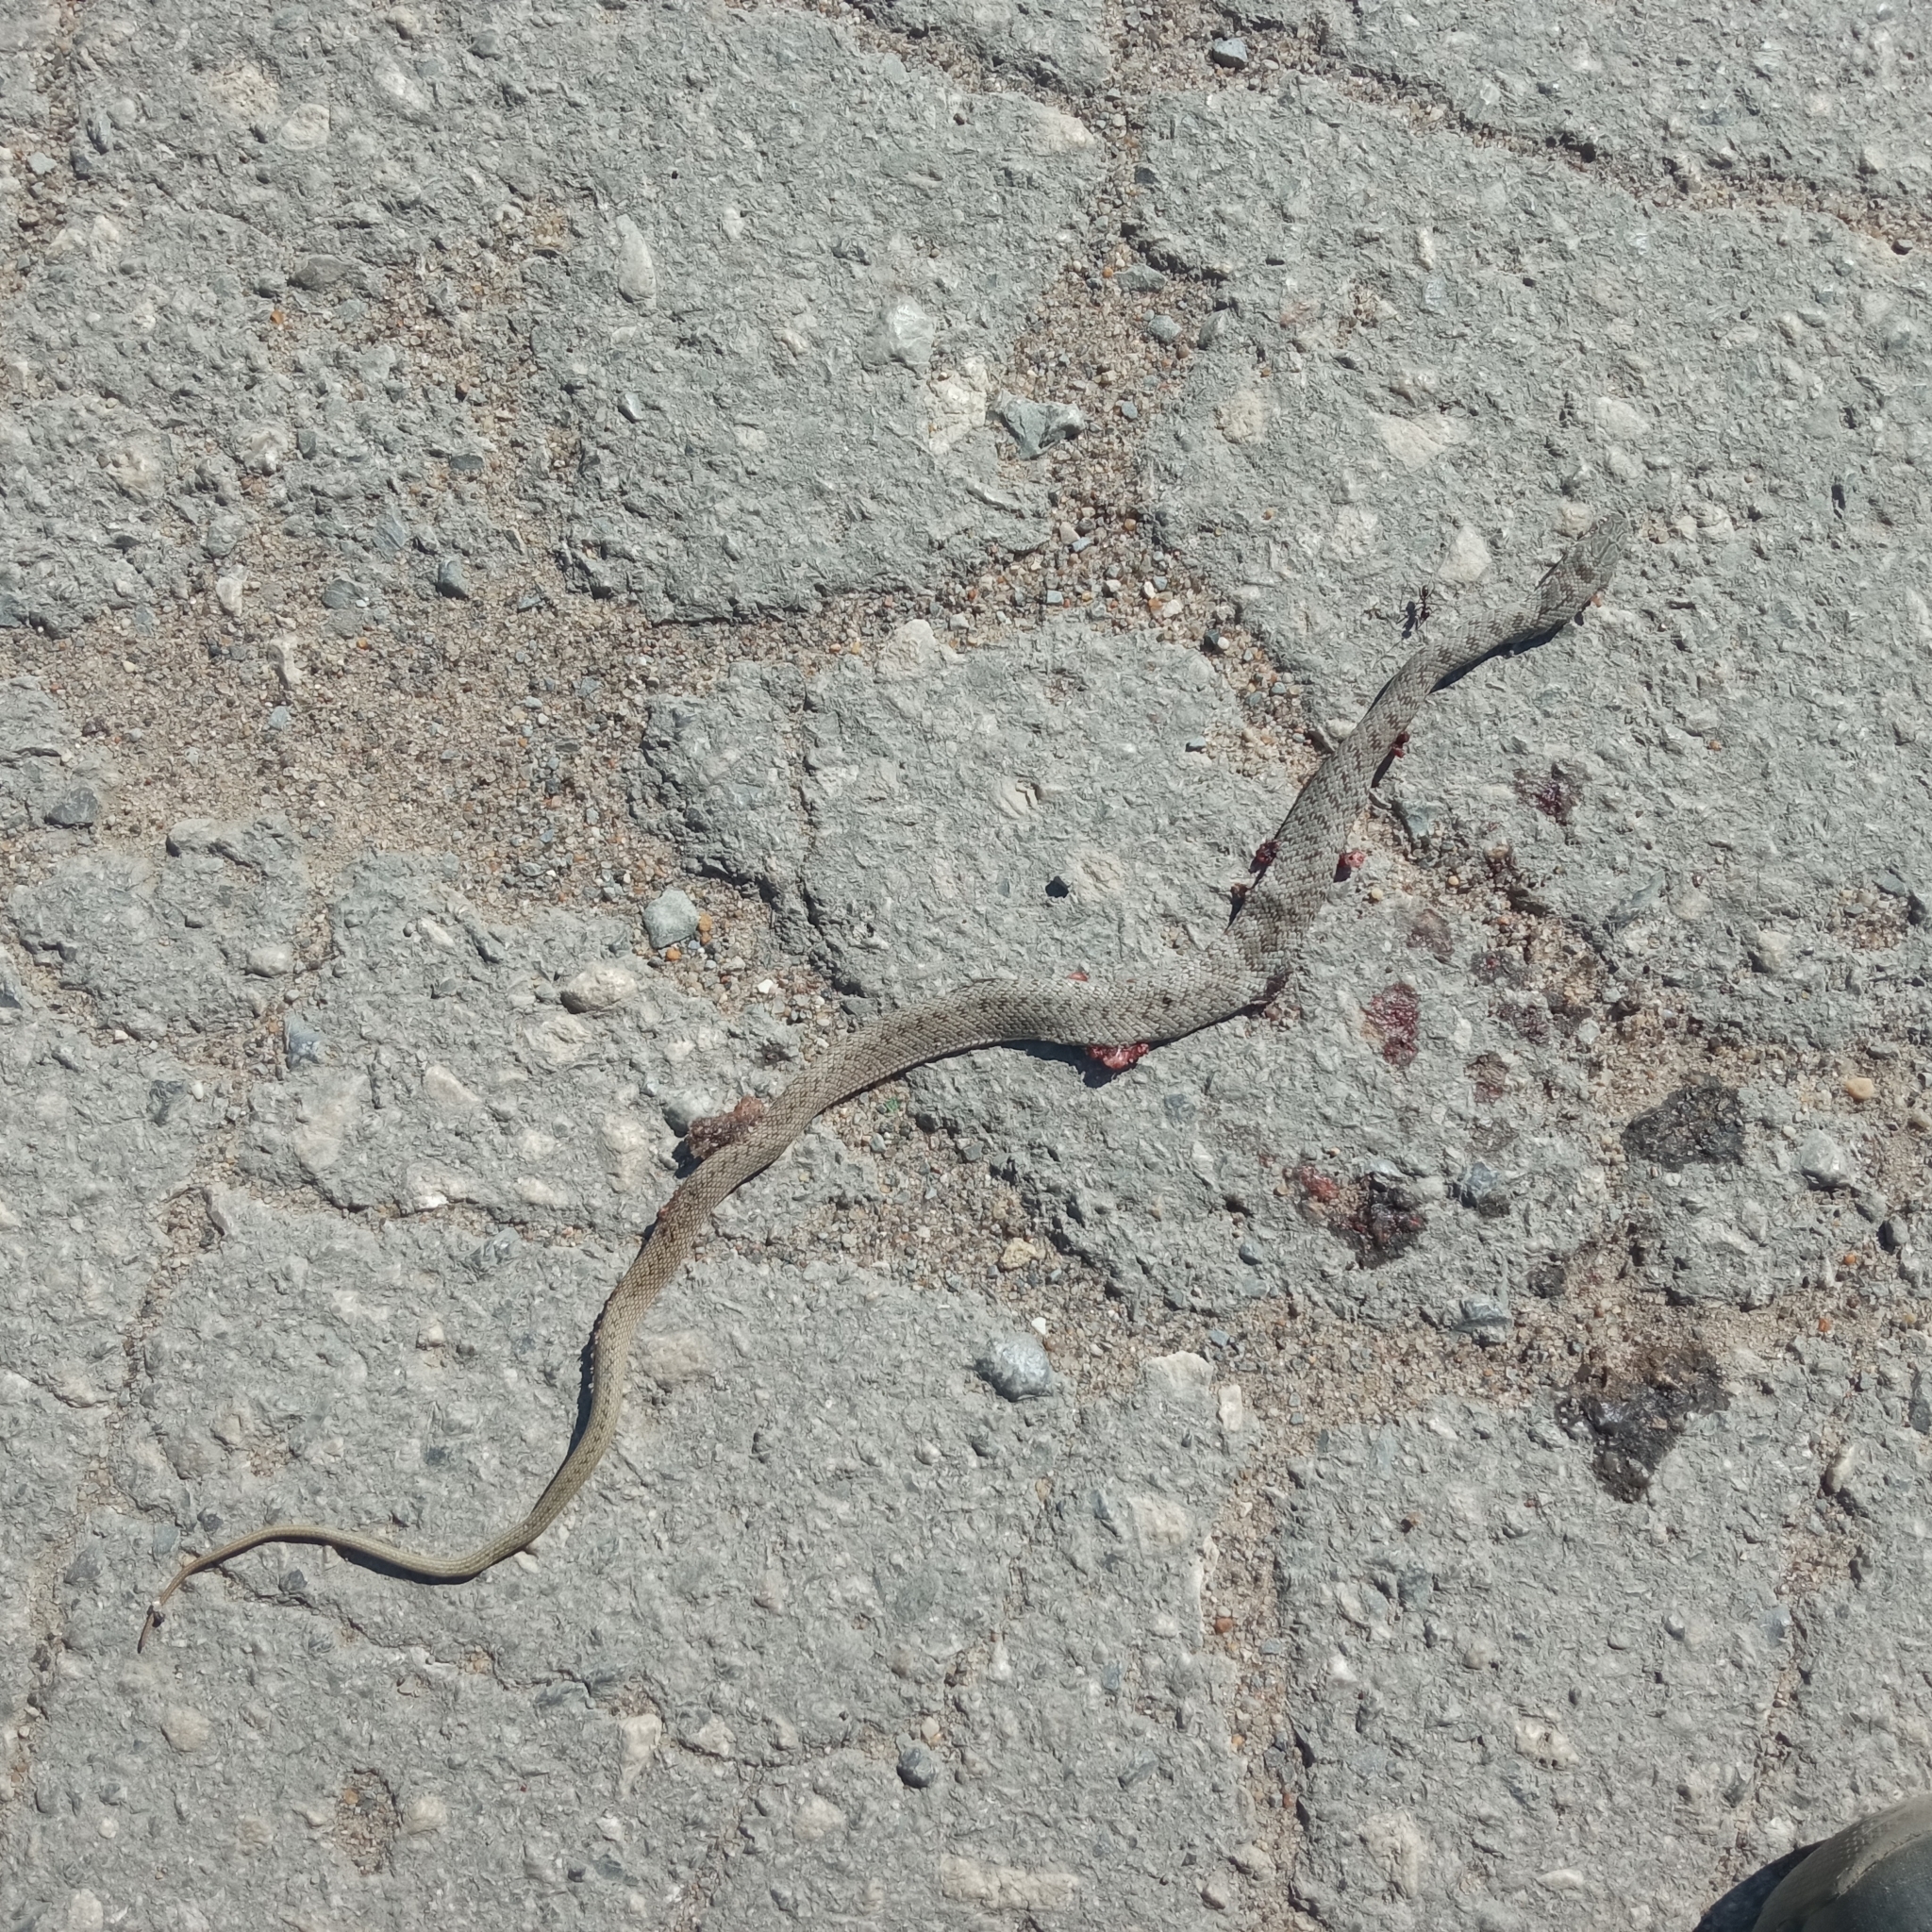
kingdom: Animalia
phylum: Chordata
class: Squamata
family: Colubridae
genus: Dolichophis
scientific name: Dolichophis caspius
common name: Large whip snake
